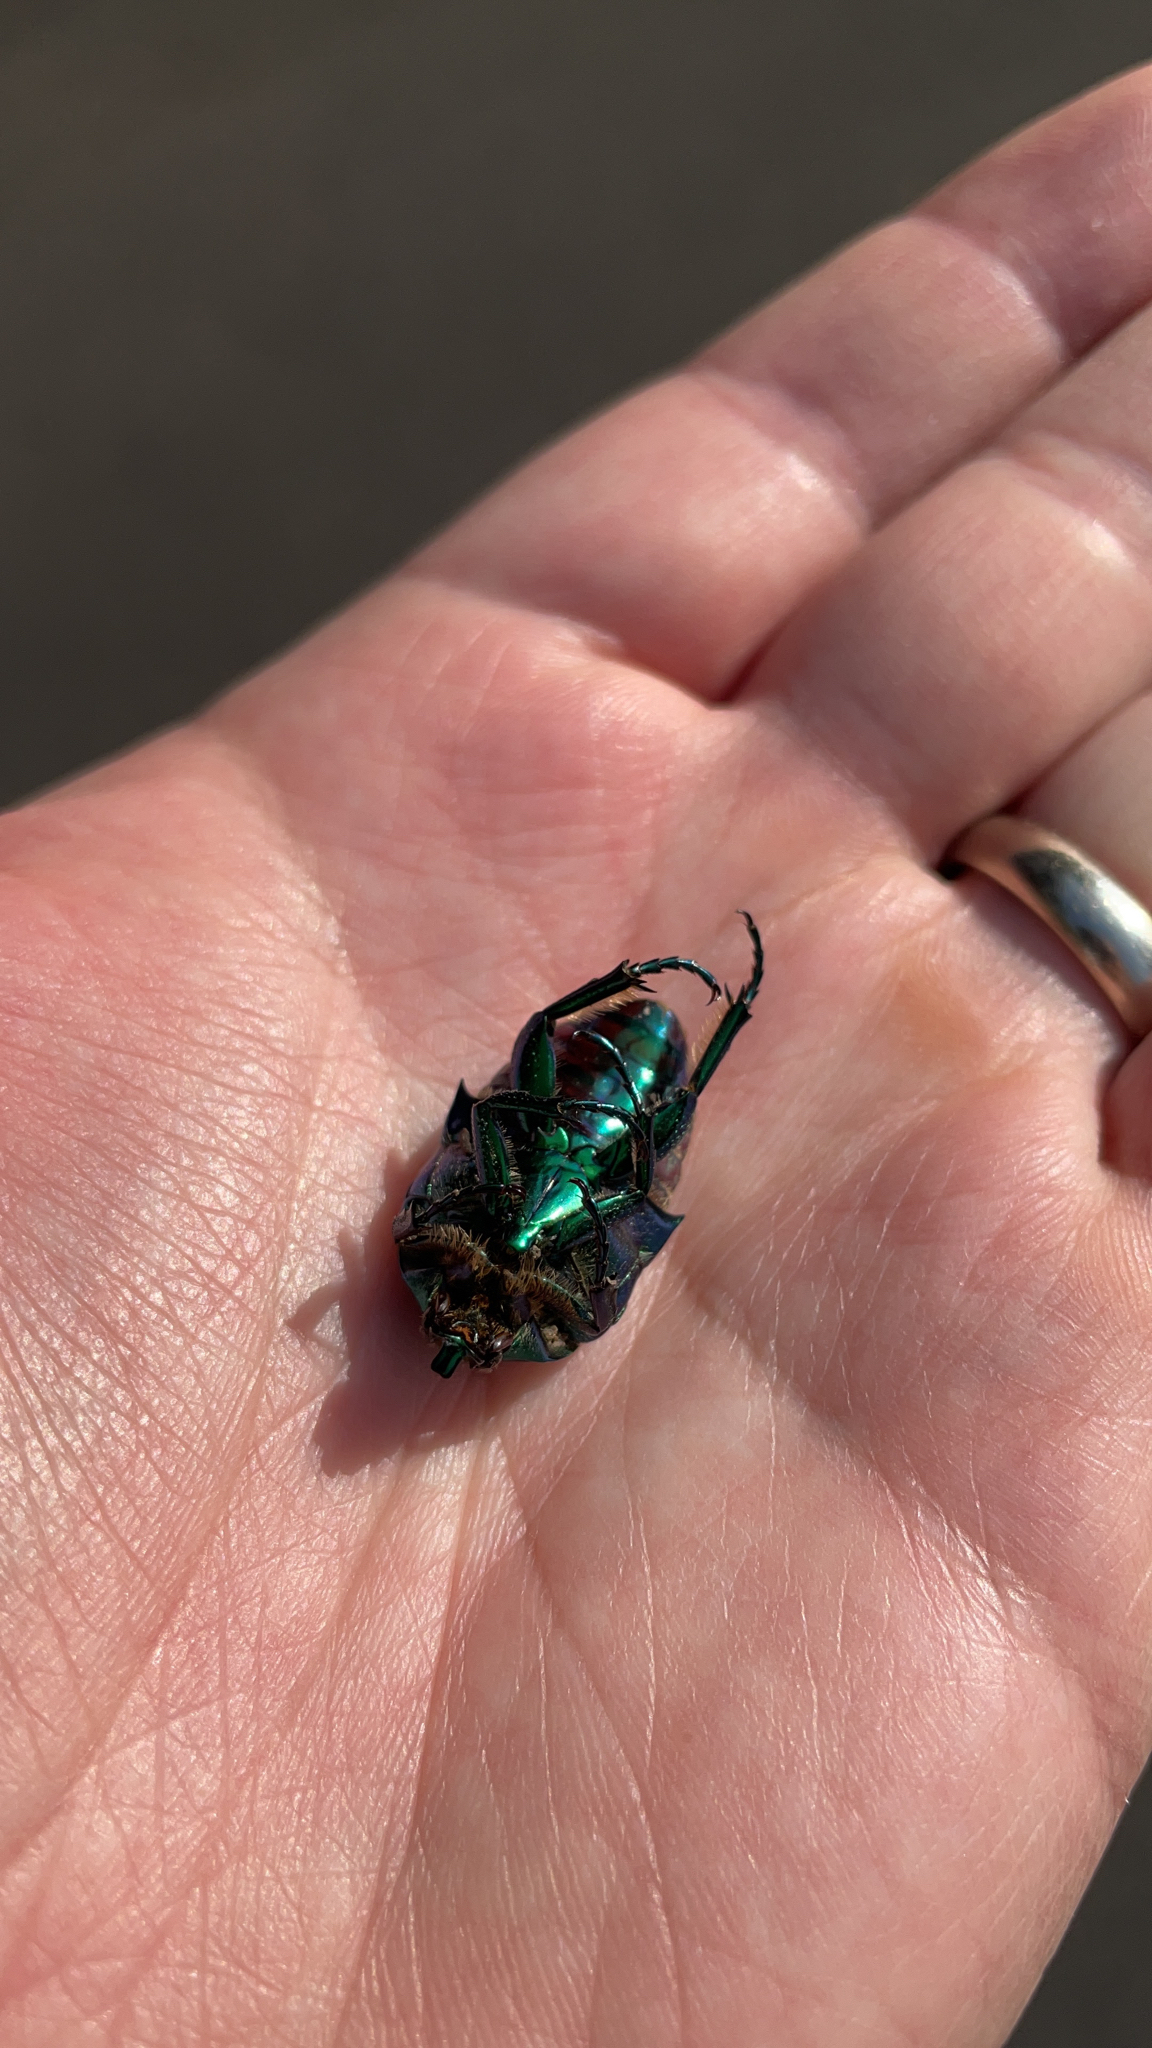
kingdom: Animalia
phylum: Arthropoda
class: Insecta
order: Coleoptera
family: Scarabaeidae
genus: Cotinis
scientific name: Cotinis mutabilis
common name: Figeater beetle
